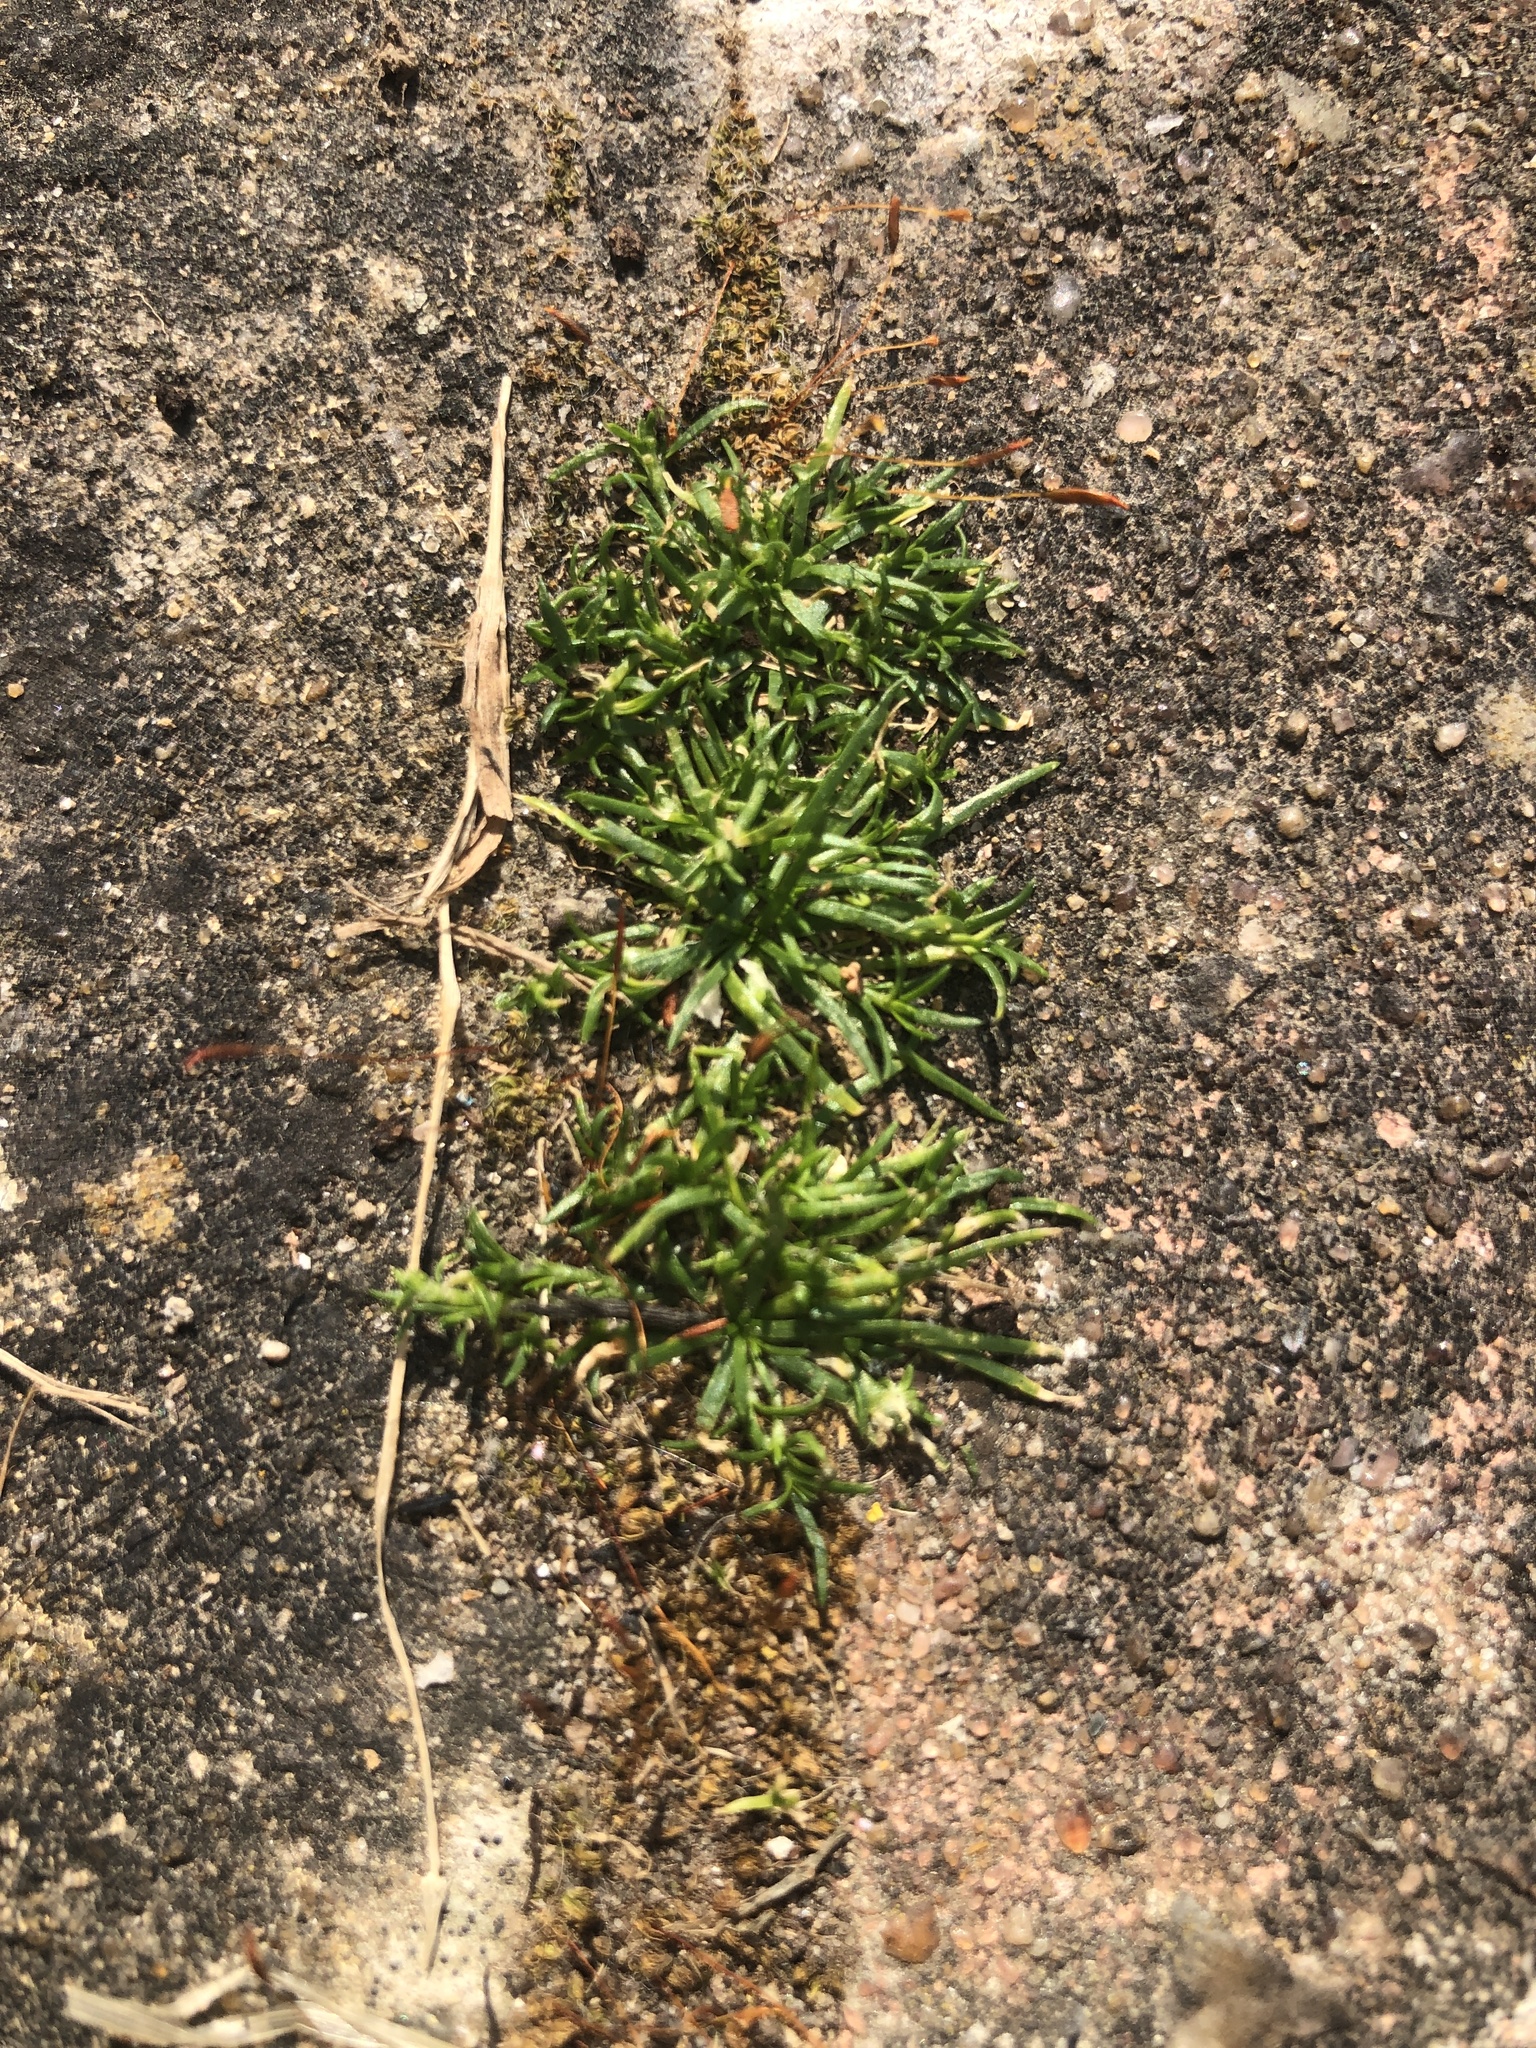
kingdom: Plantae
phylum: Tracheophyta
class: Magnoliopsida
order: Caryophyllales
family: Caryophyllaceae
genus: Sagina
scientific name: Sagina procumbens
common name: Procumbent pearlwort
